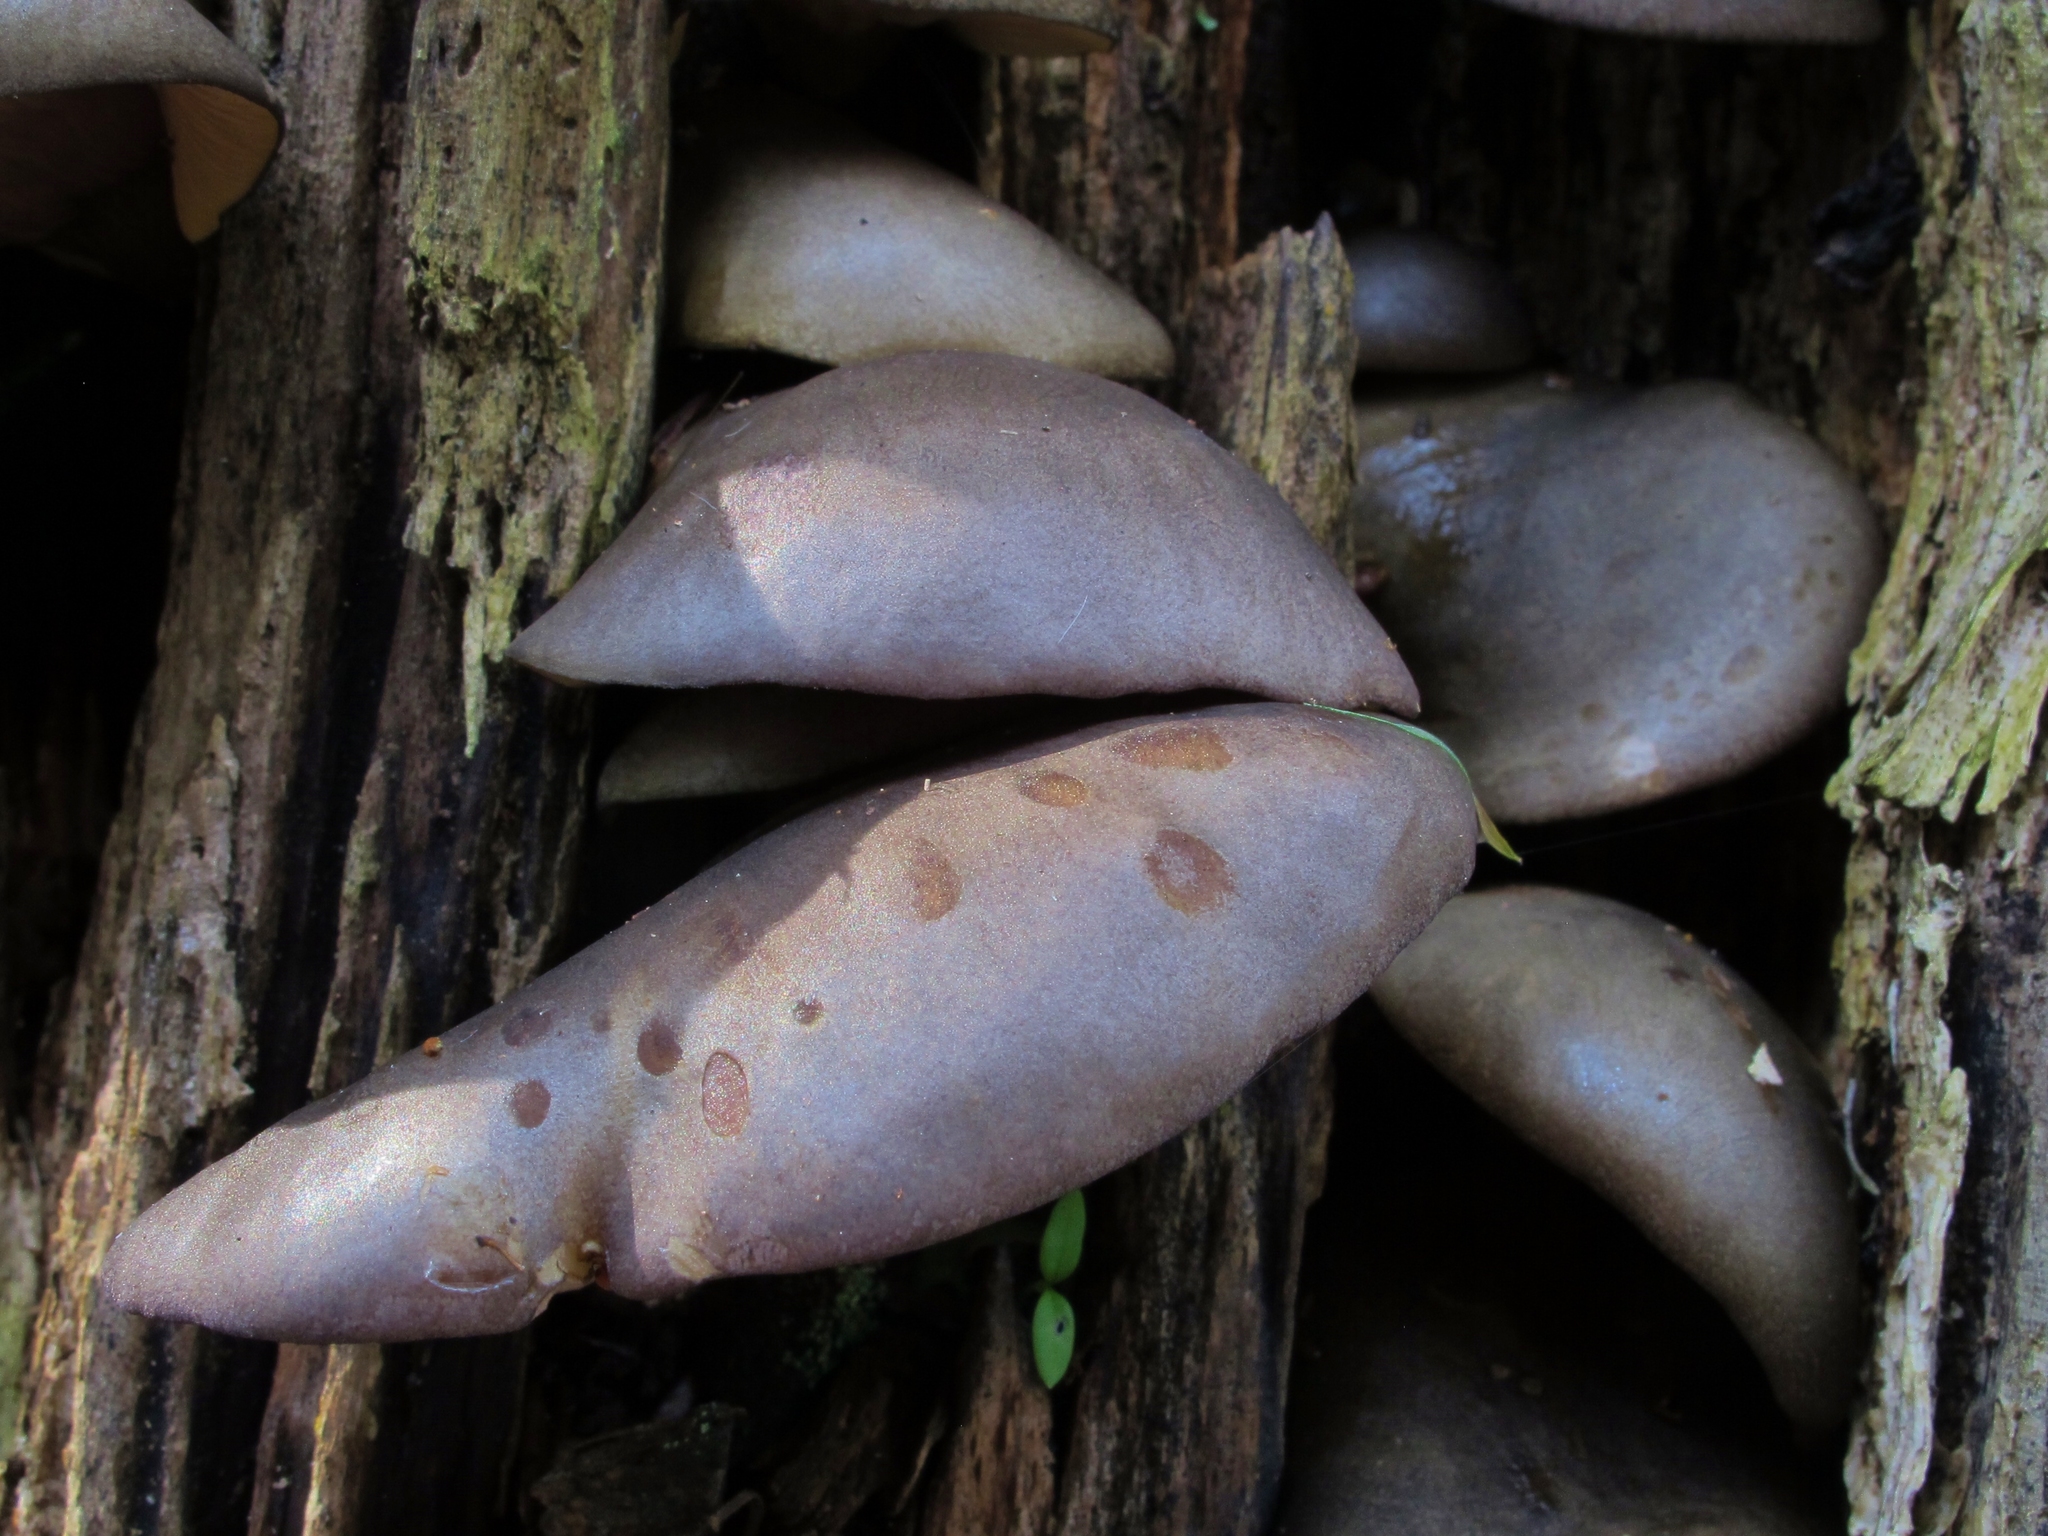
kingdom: Fungi
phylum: Basidiomycota
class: Agaricomycetes
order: Agaricales
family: Sarcomyxaceae
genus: Sarcomyxa
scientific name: Sarcomyxa serotina
